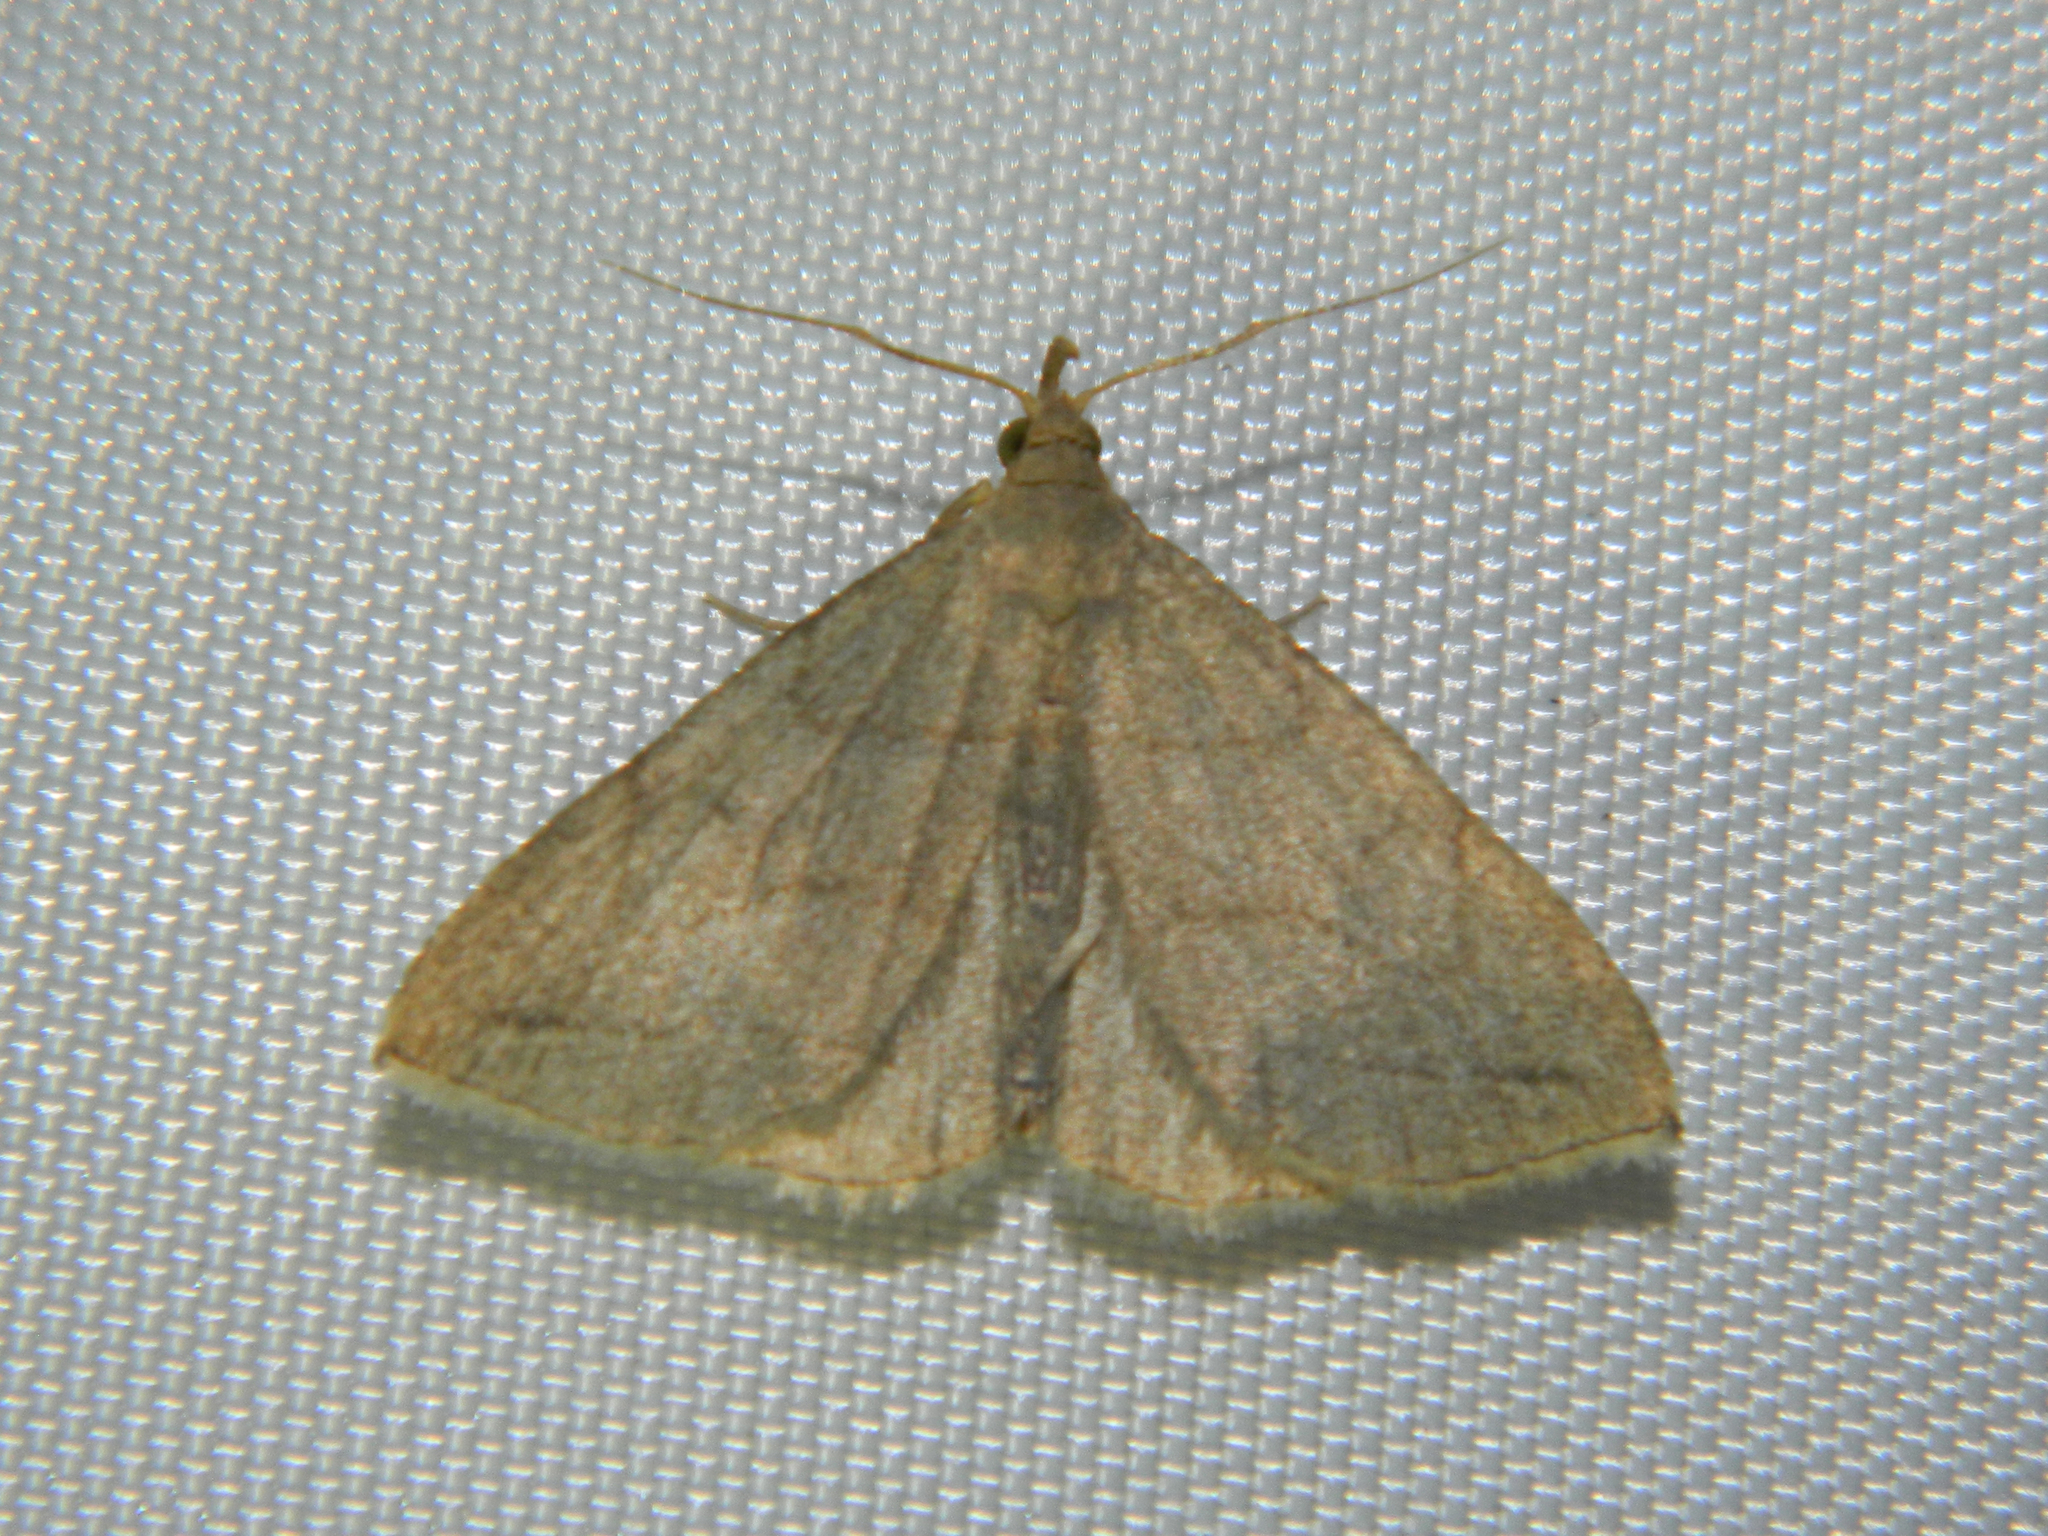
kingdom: Animalia
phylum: Arthropoda
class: Insecta
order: Lepidoptera
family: Erebidae
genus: Zanclognatha
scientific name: Zanclognatha pedipilalis
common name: Grayish fan-foot
